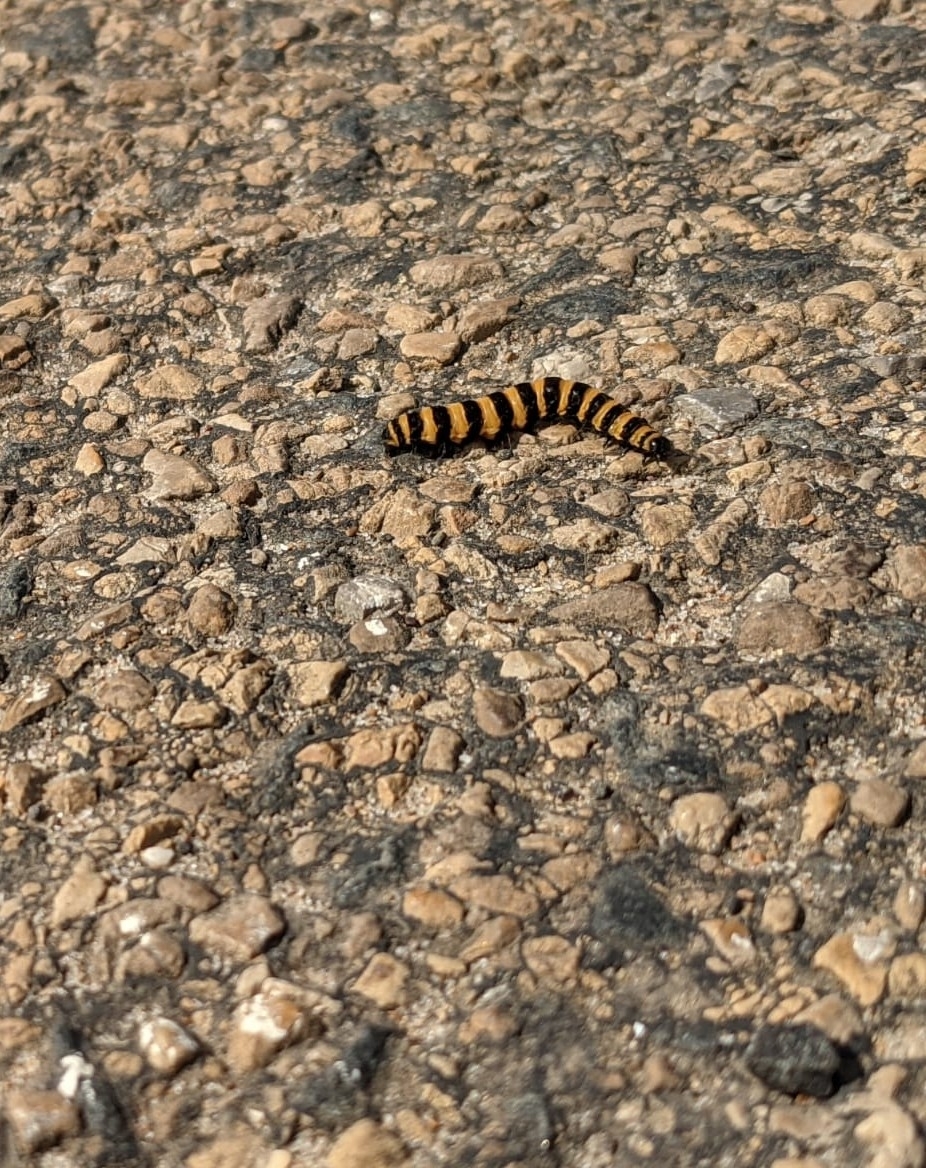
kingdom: Animalia
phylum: Arthropoda
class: Insecta
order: Lepidoptera
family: Erebidae
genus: Tyria
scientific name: Tyria jacobaeae
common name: Cinnabar
